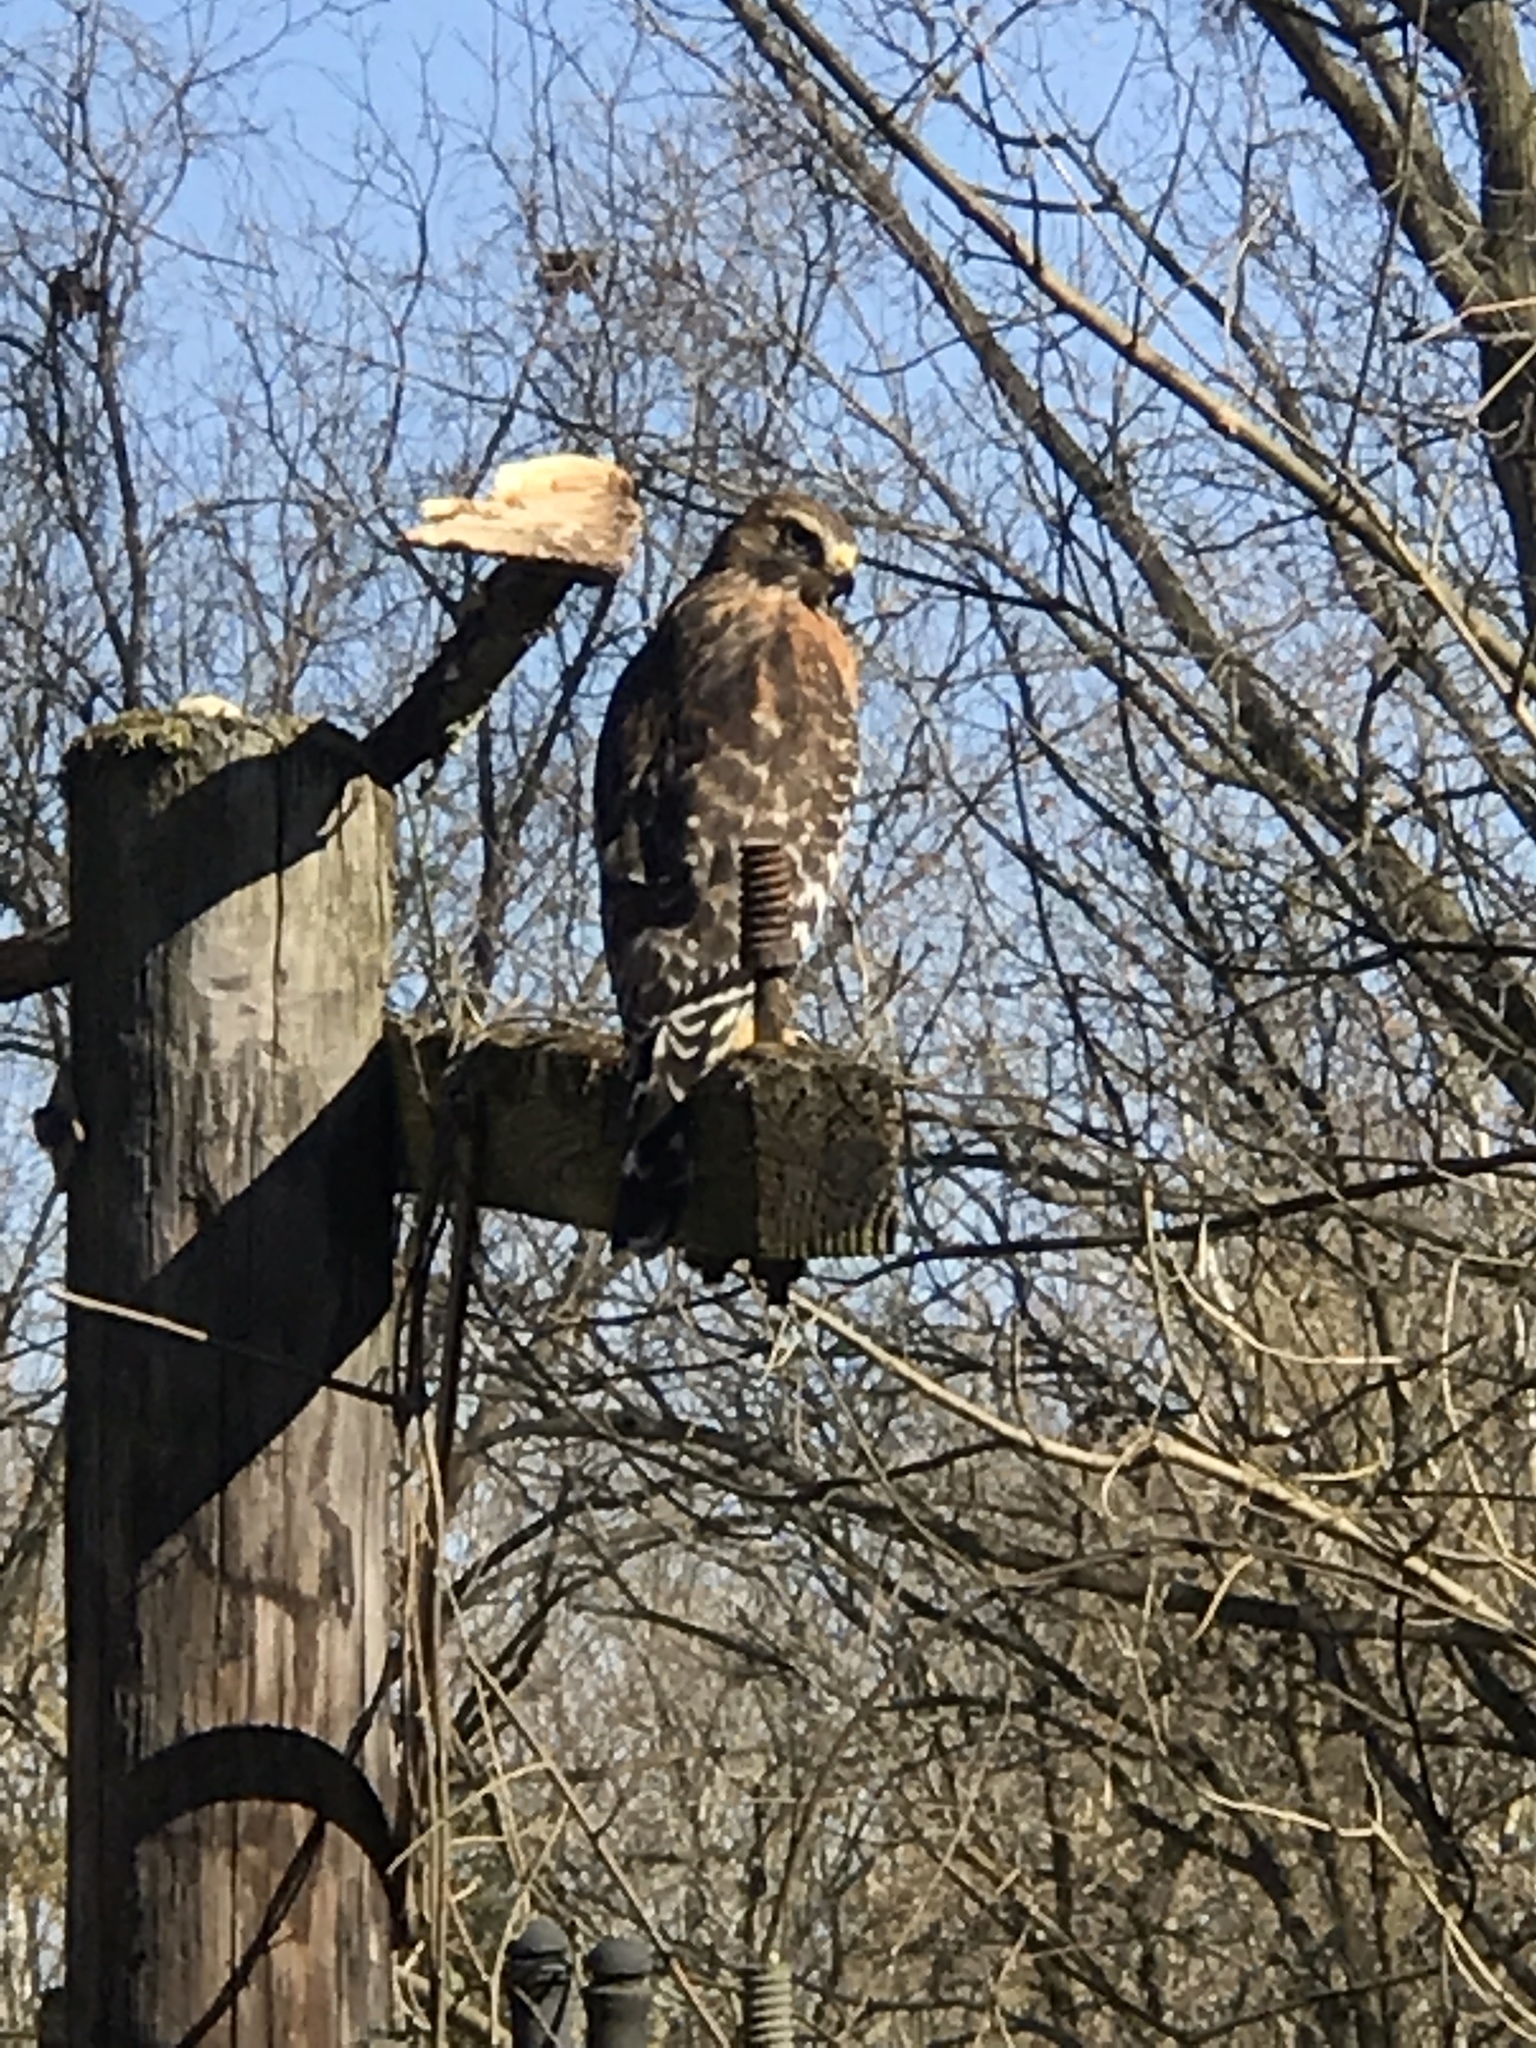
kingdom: Animalia
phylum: Chordata
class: Aves
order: Accipitriformes
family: Accipitridae
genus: Buteo
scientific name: Buteo lineatus
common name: Red-shouldered hawk
